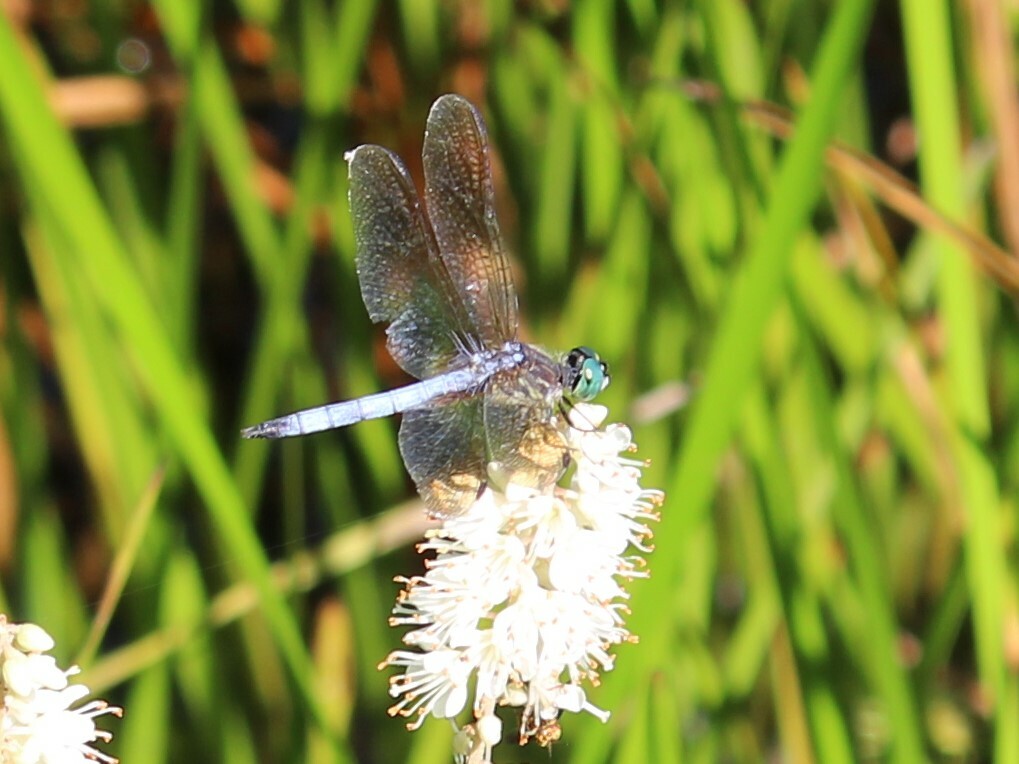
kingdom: Animalia
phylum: Arthropoda
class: Insecta
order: Odonata
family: Libellulidae
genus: Pachydiplax
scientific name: Pachydiplax longipennis
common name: Blue dasher
